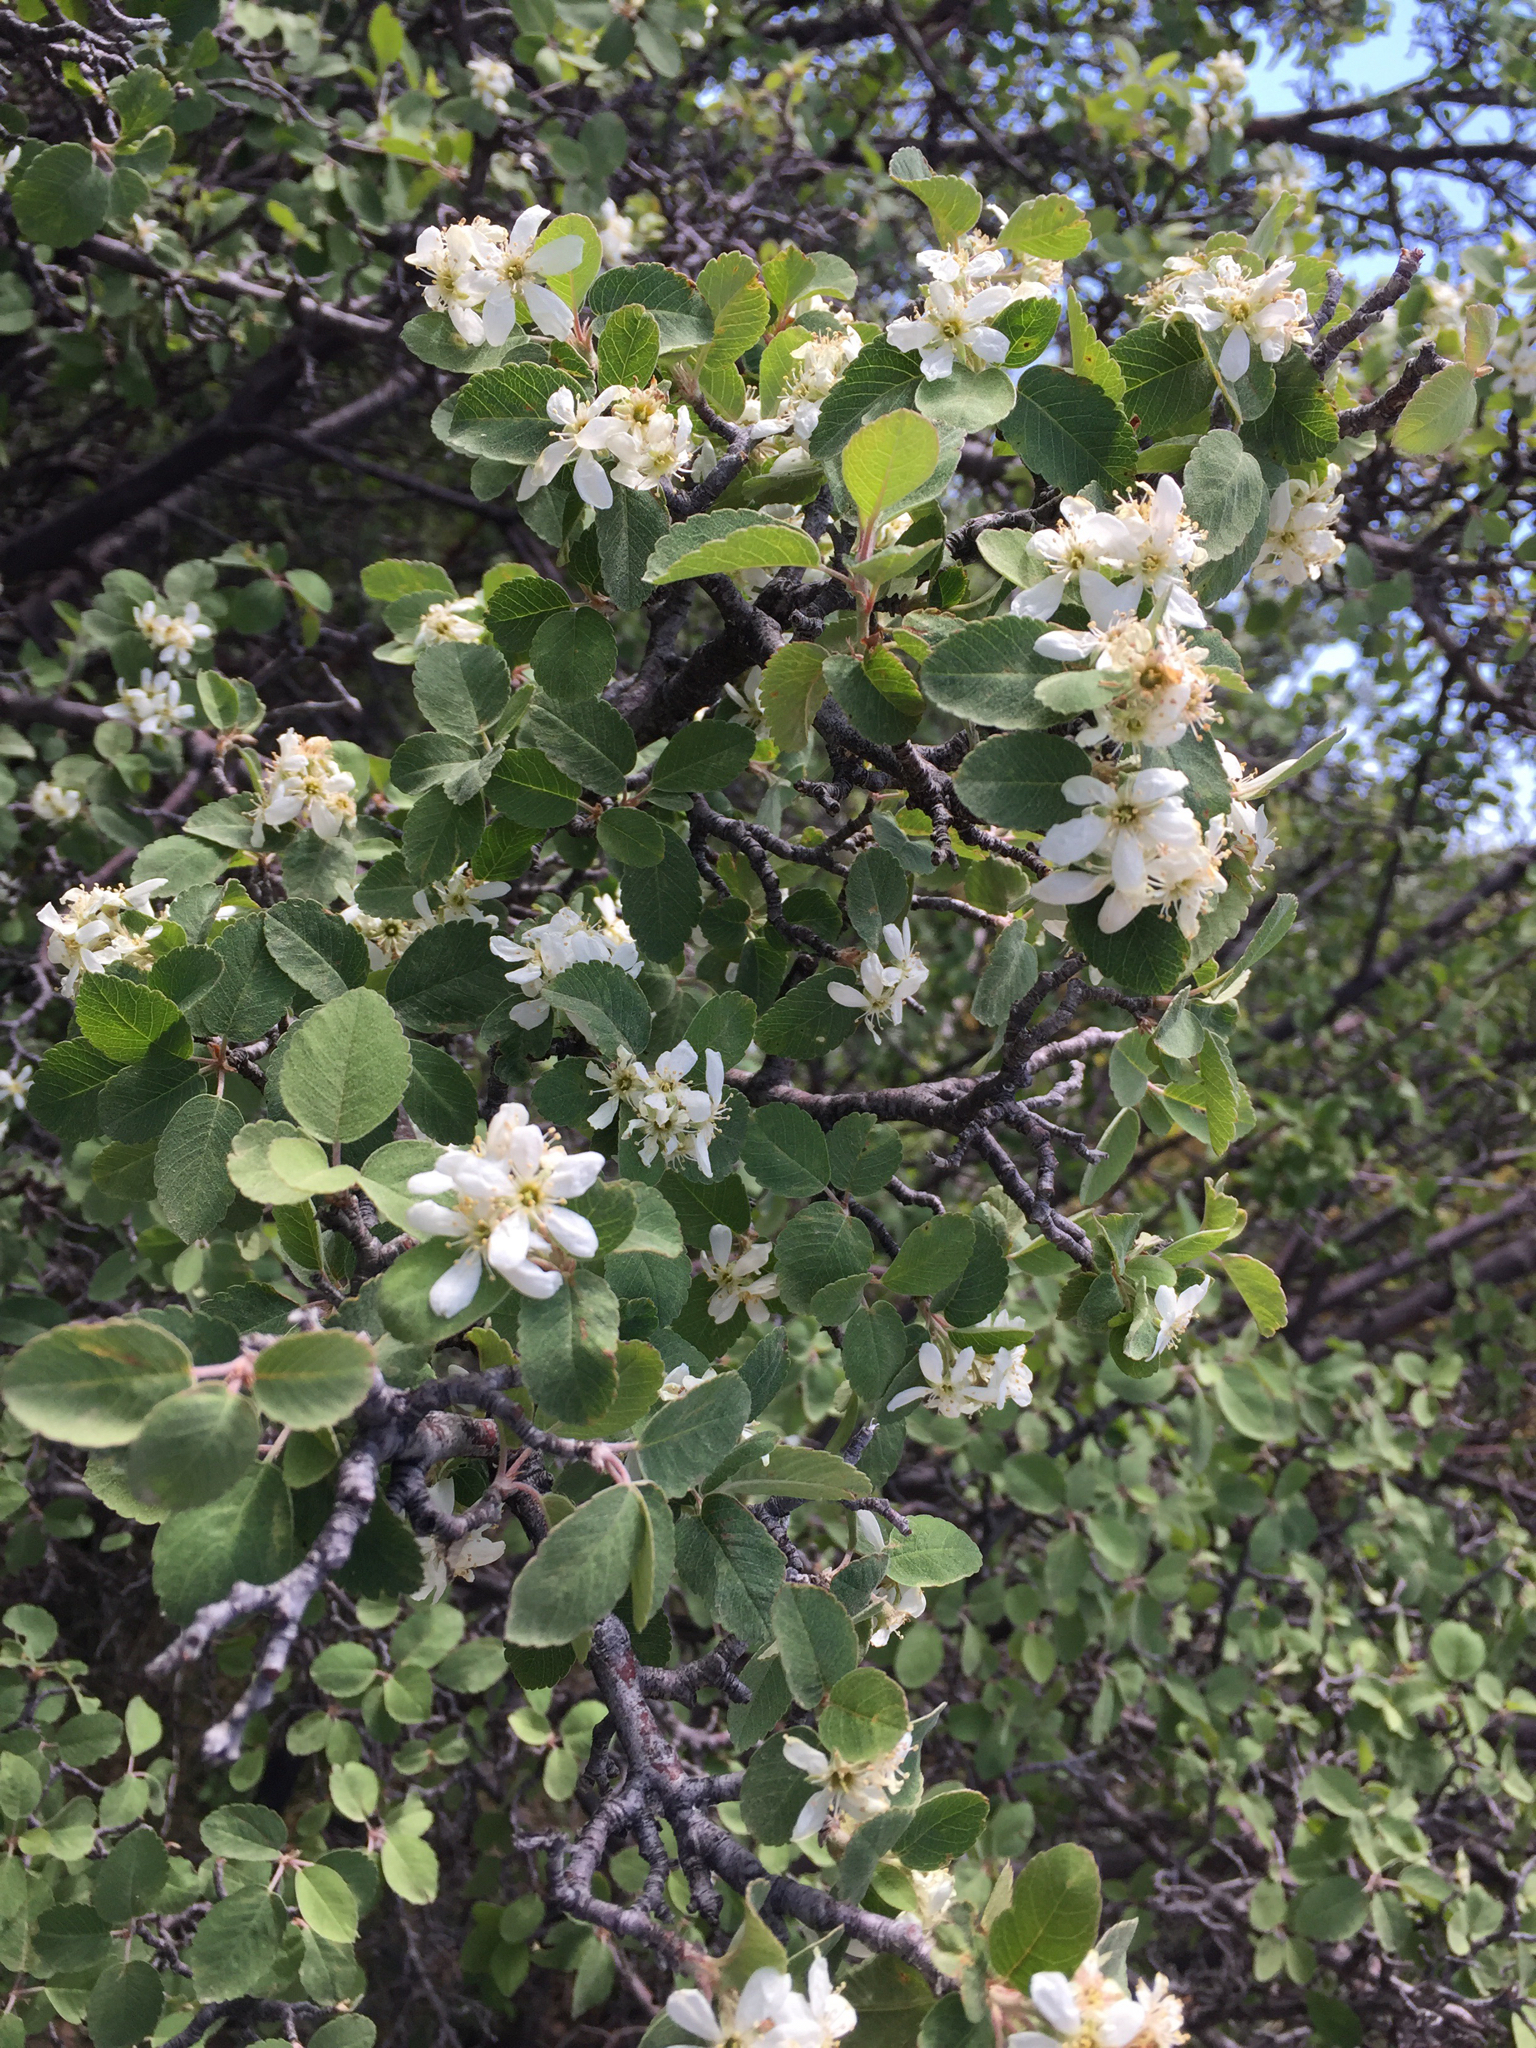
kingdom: Plantae
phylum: Tracheophyta
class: Magnoliopsida
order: Rosales
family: Rosaceae
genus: Amelanchier
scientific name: Amelanchier utahensis
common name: Utah serviceberry
